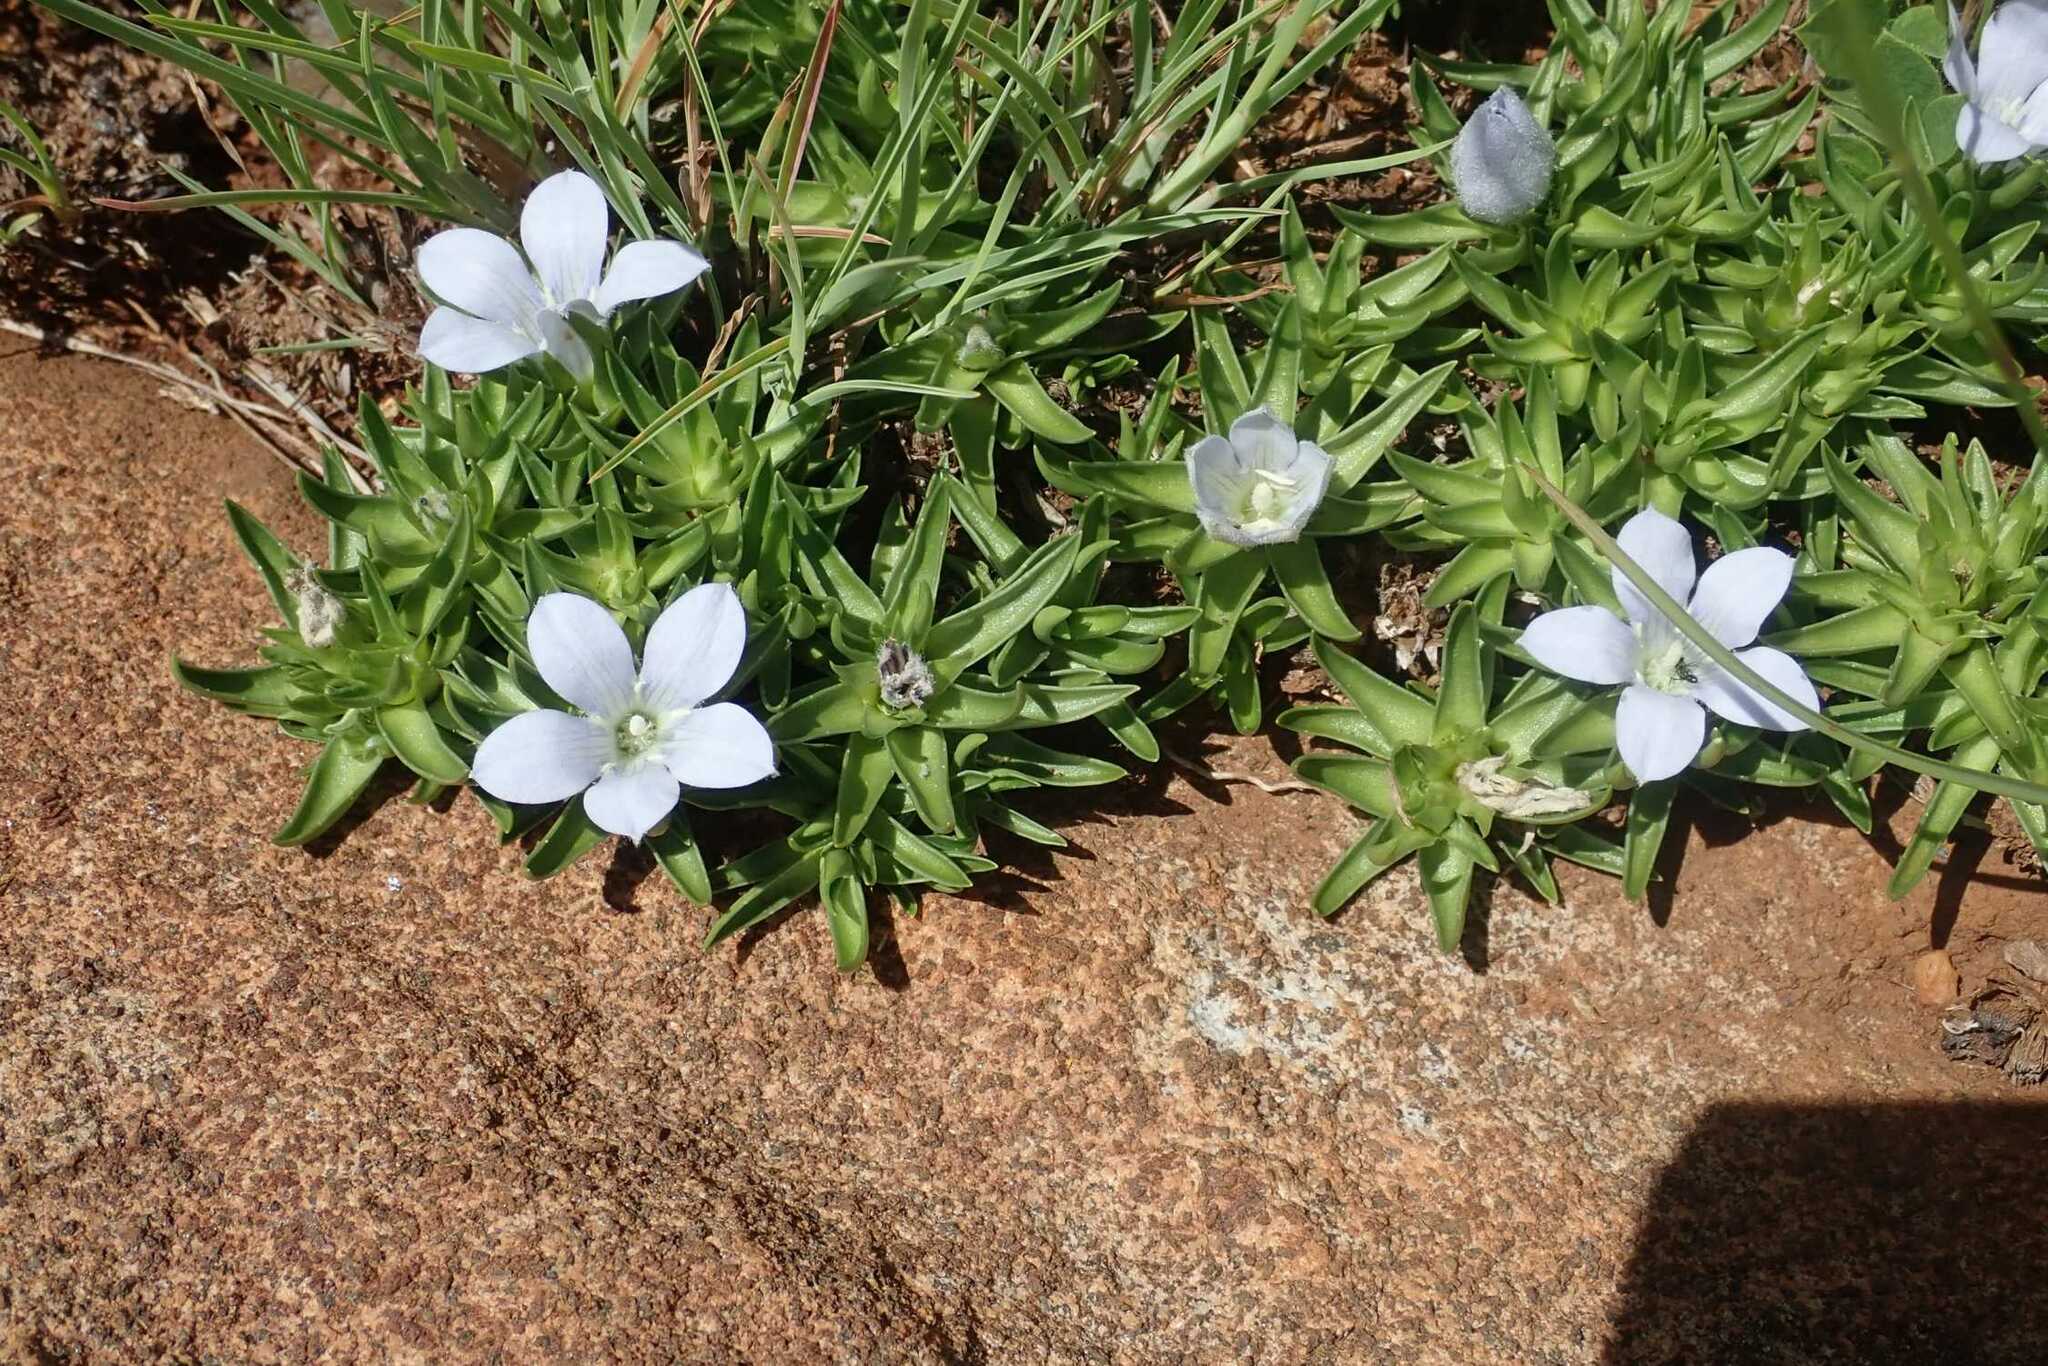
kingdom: Plantae
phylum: Tracheophyta
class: Magnoliopsida
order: Asterales
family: Campanulaceae
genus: Craterocapsa
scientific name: Craterocapsa tarsodes
